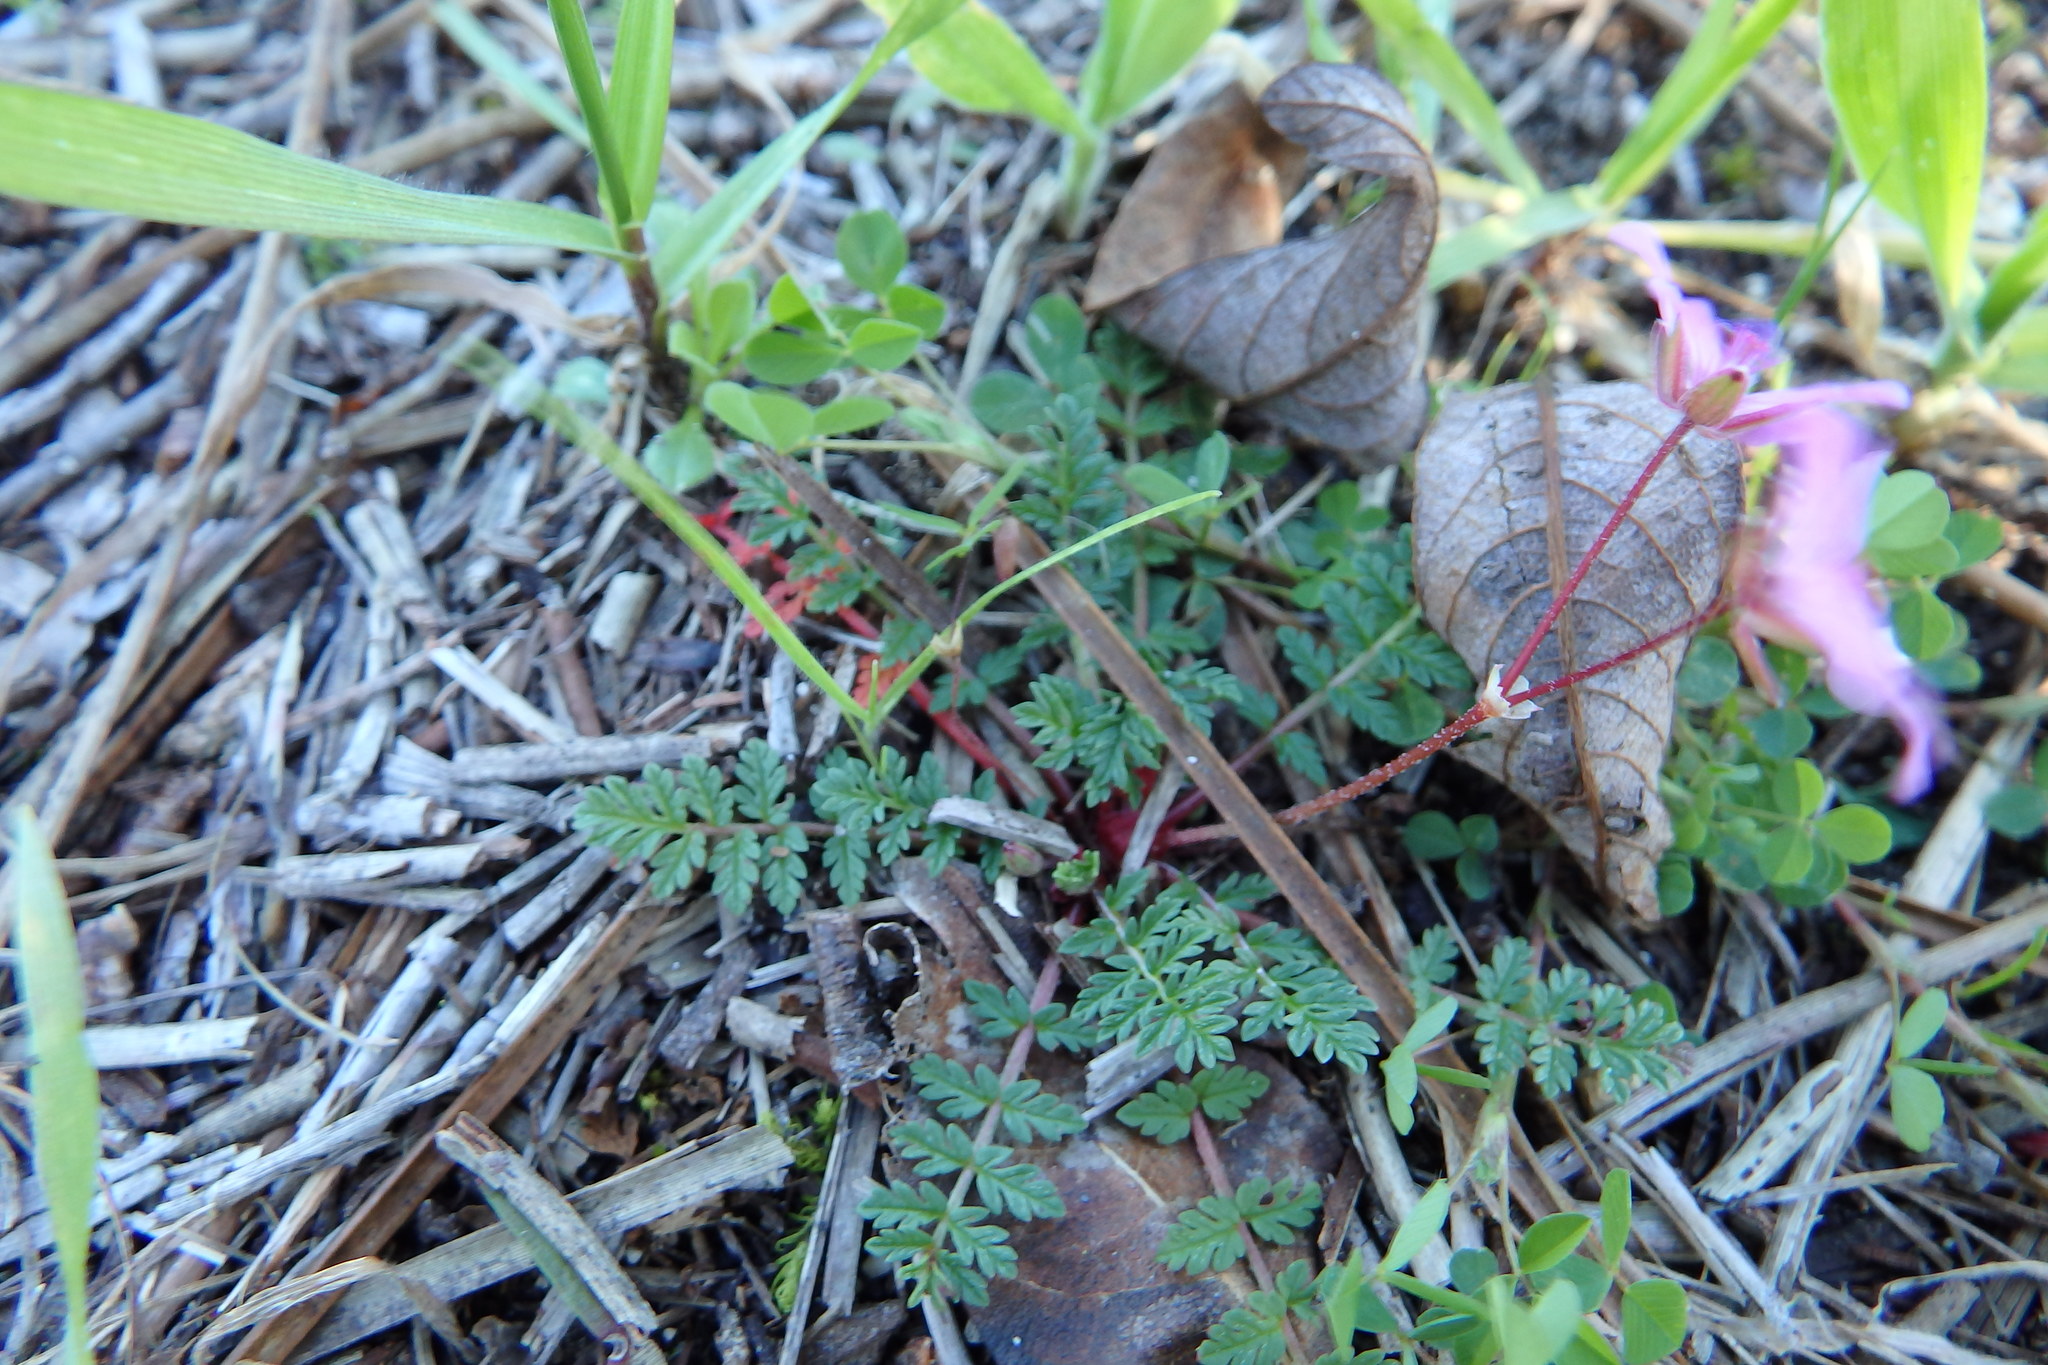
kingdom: Plantae
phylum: Tracheophyta
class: Magnoliopsida
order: Geraniales
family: Geraniaceae
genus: Erodium
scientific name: Erodium cicutarium
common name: Common stork's-bill
